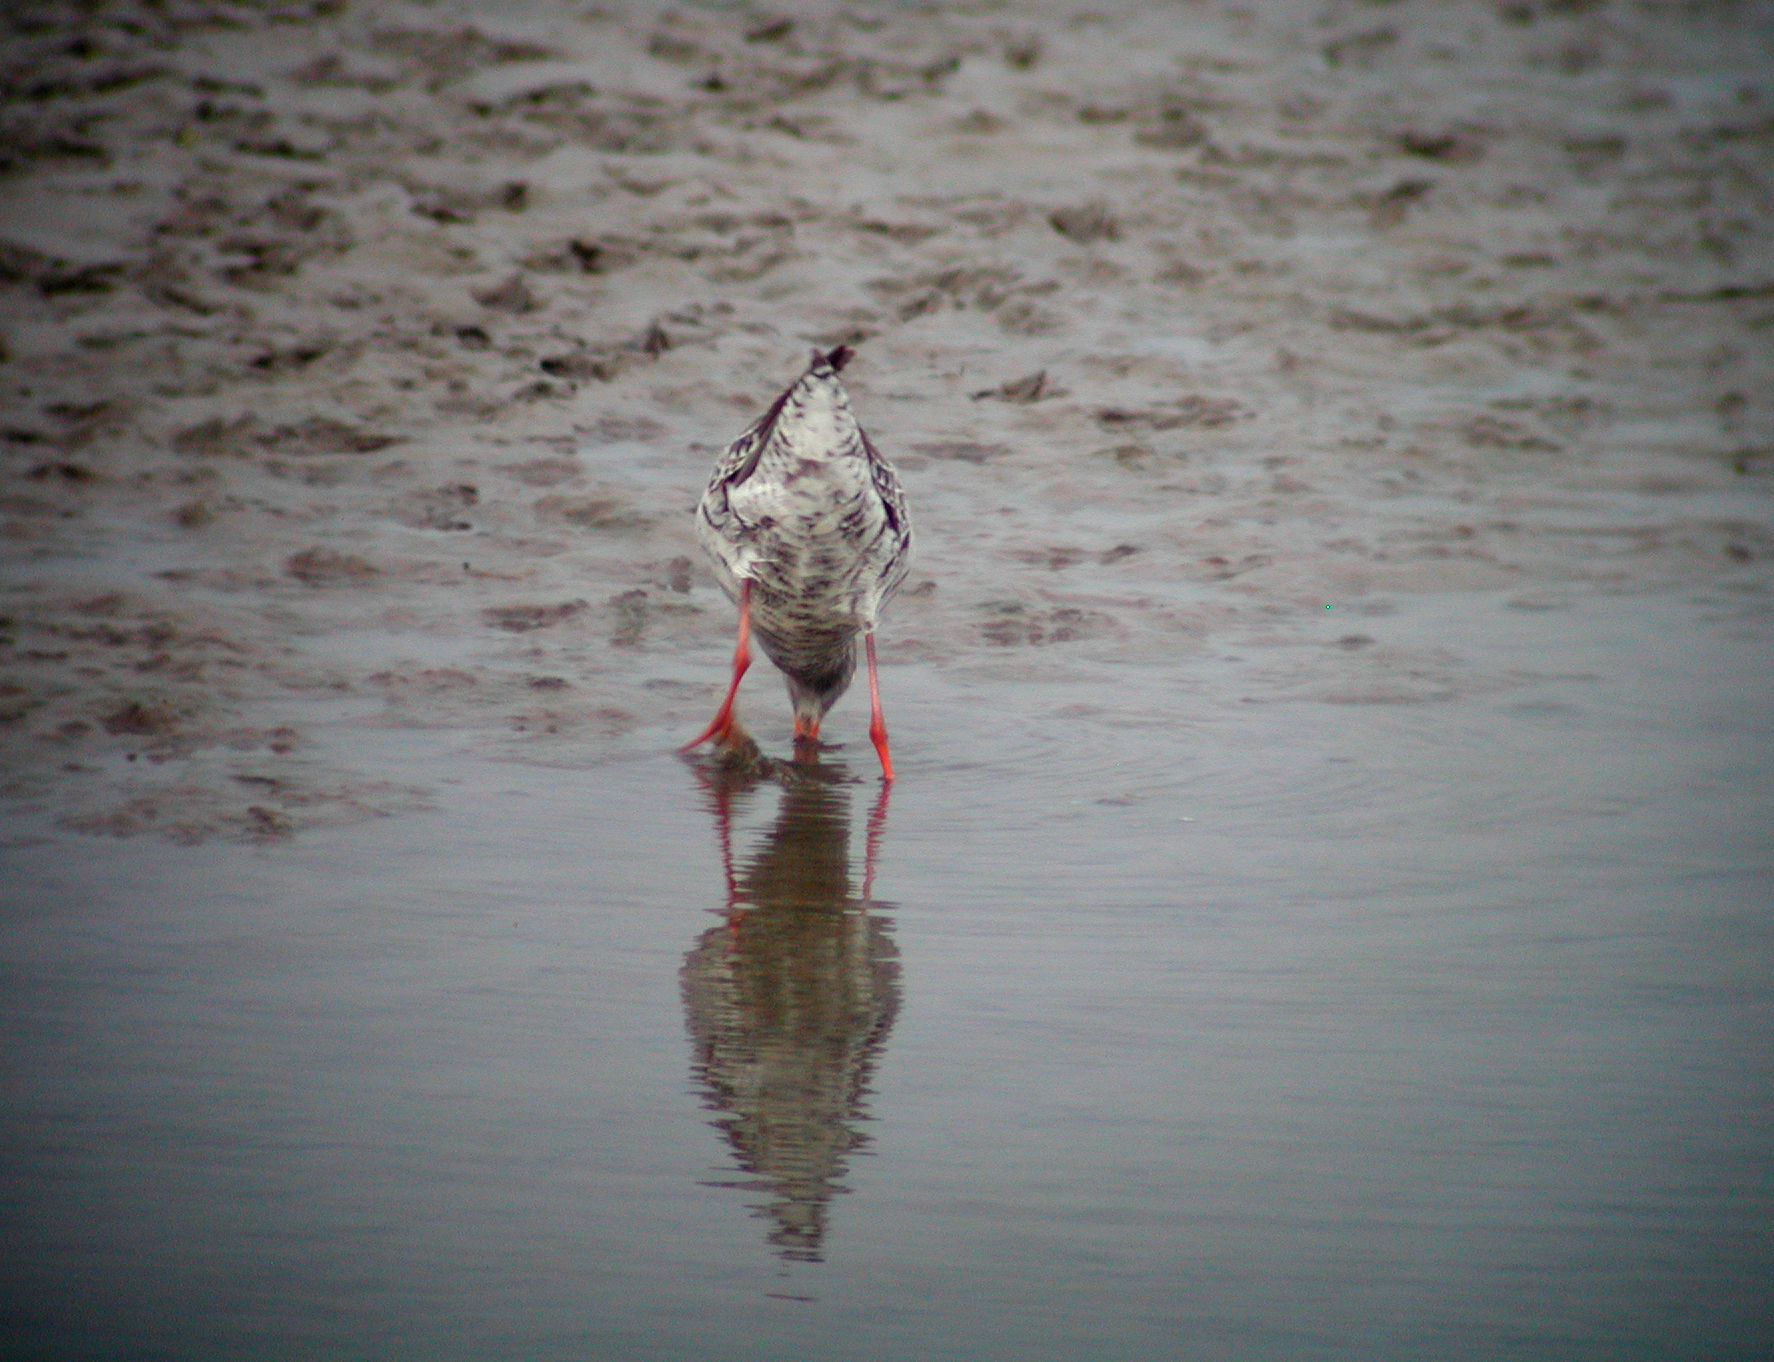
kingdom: Animalia
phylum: Chordata
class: Aves
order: Charadriiformes
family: Scolopacidae
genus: Tringa
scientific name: Tringa erythropus
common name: Spotted redshank
